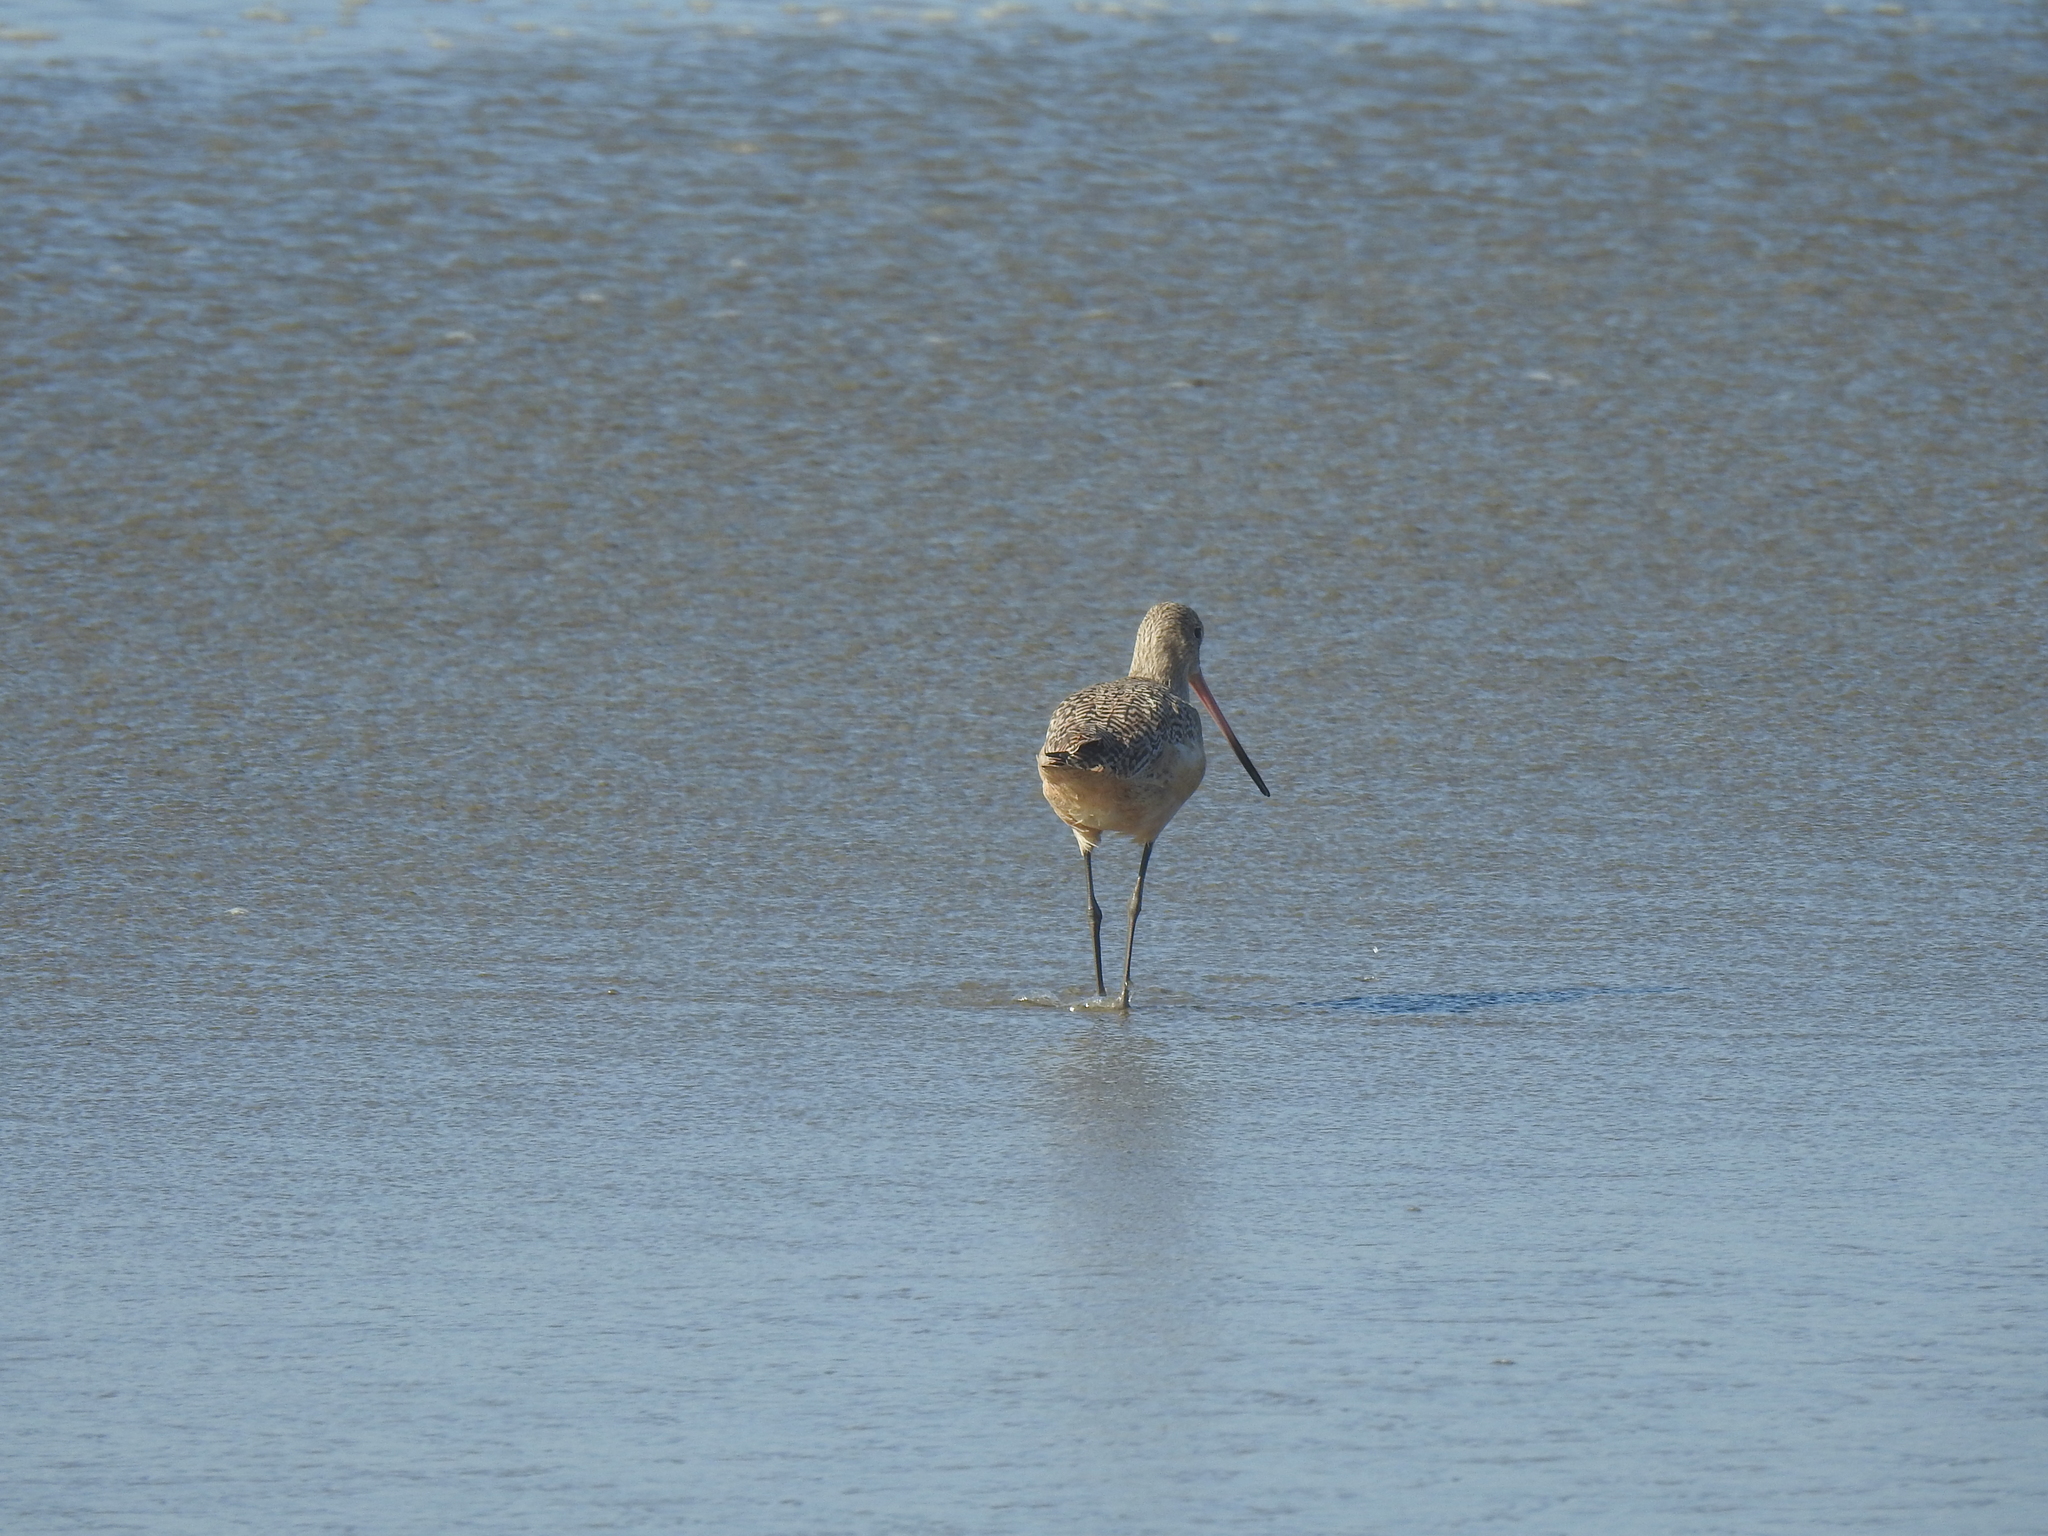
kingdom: Animalia
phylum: Chordata
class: Aves
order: Charadriiformes
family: Scolopacidae
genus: Limosa
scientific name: Limosa fedoa
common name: Marbled godwit
